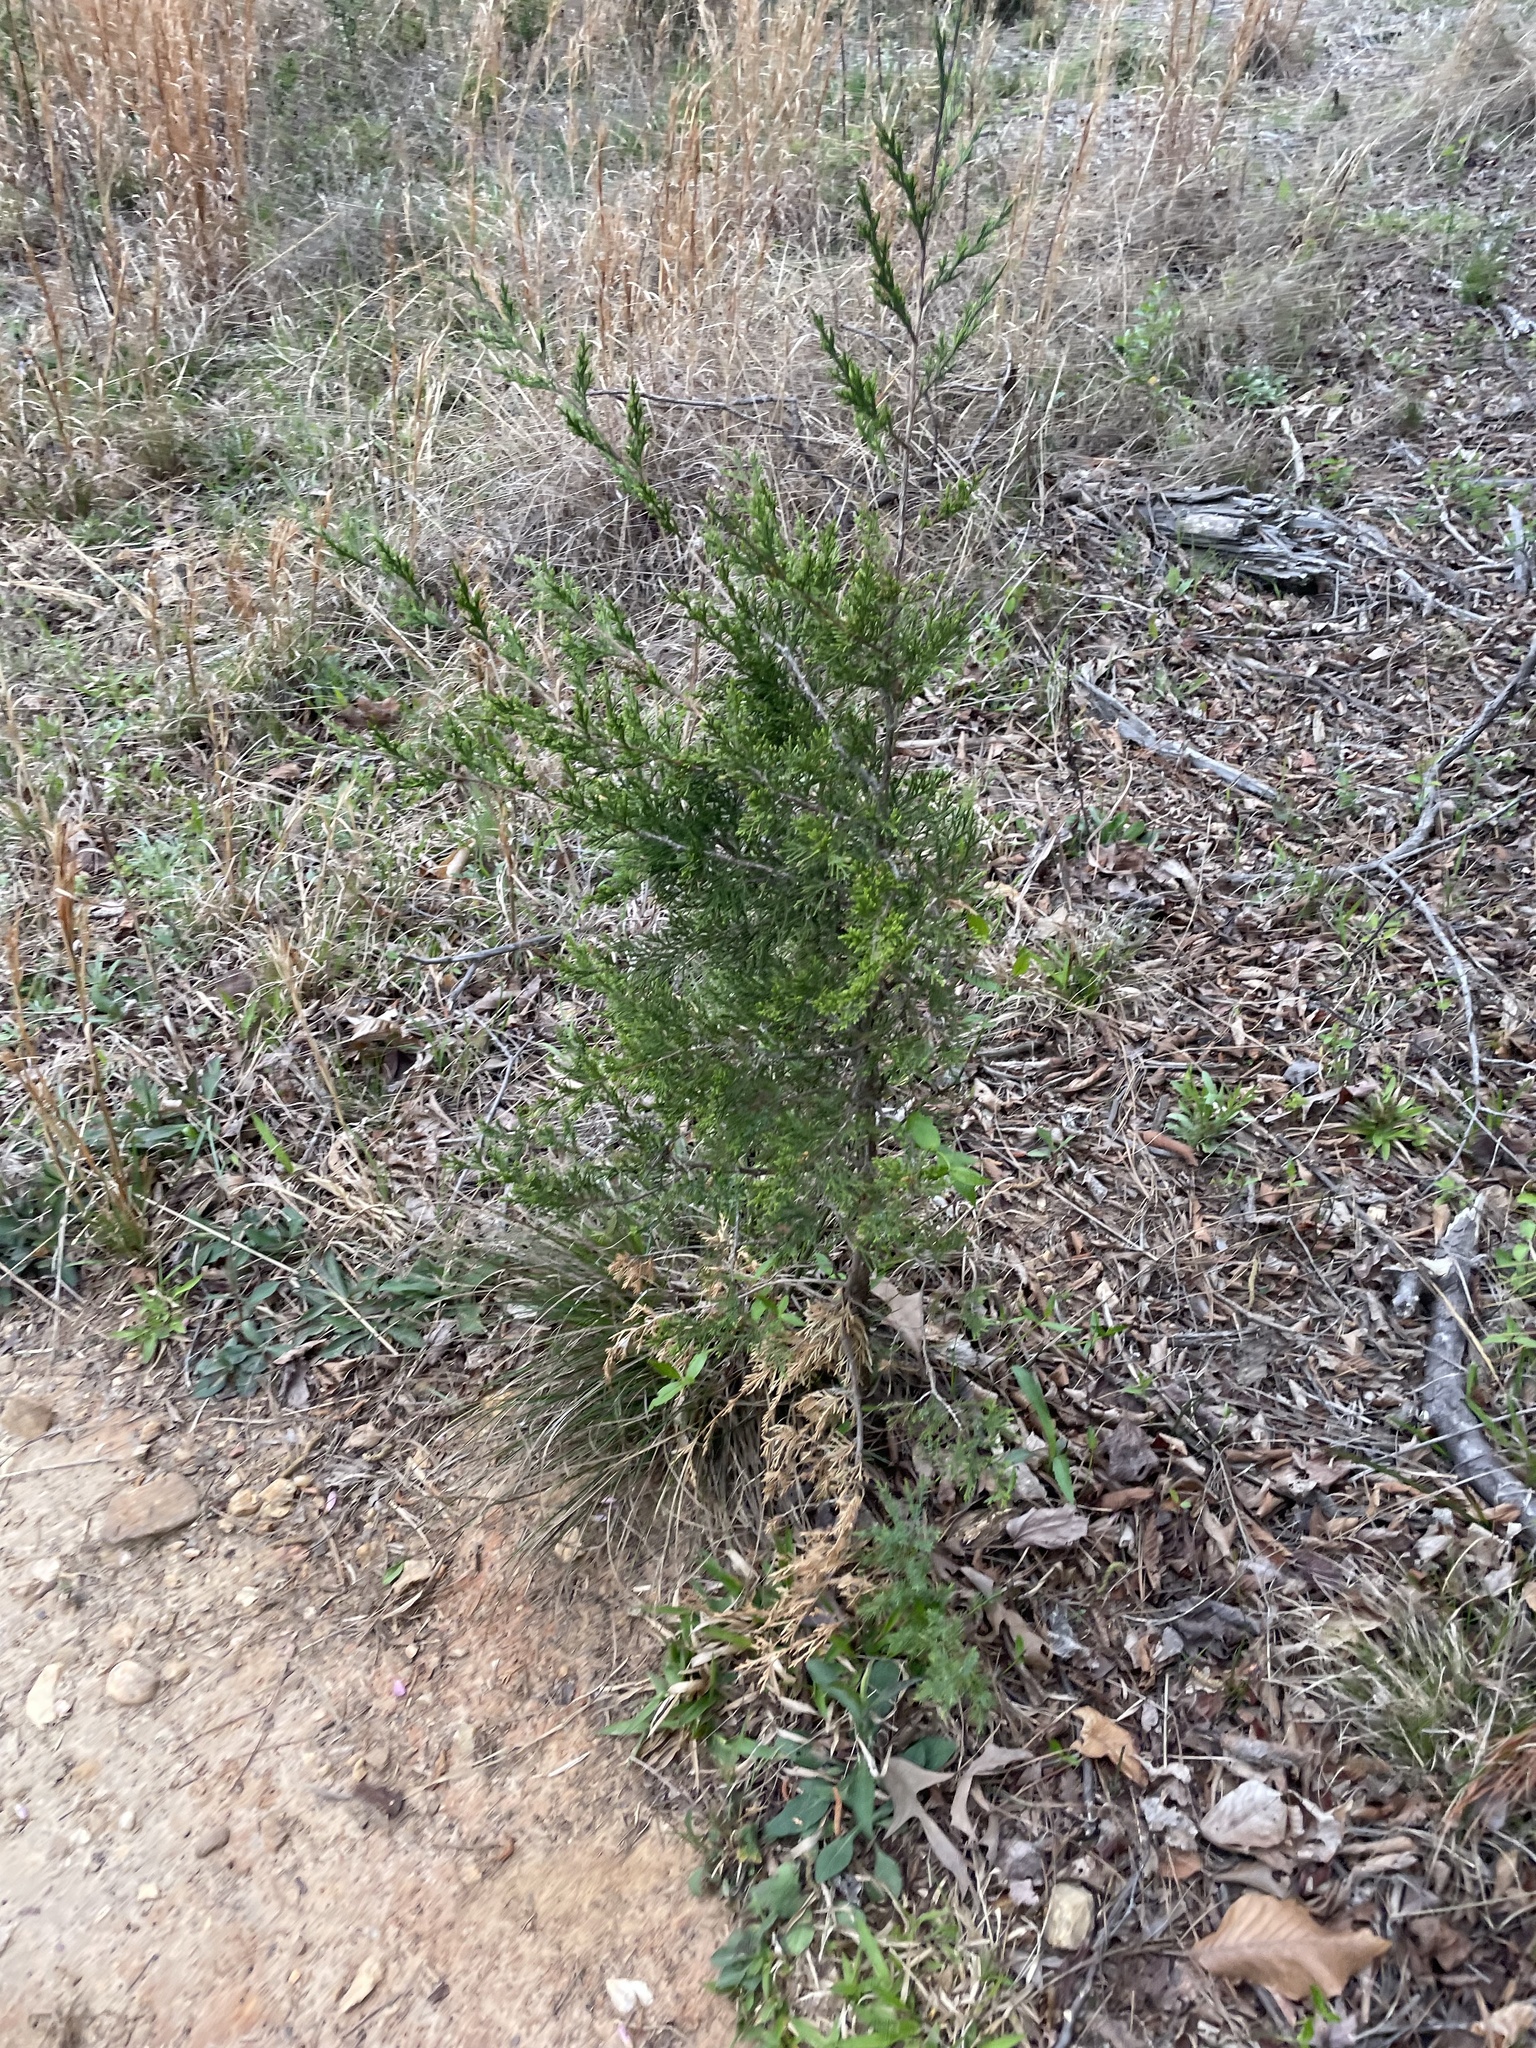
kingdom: Plantae
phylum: Tracheophyta
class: Pinopsida
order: Pinales
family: Cupressaceae
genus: Juniperus
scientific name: Juniperus virginiana
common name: Red juniper
